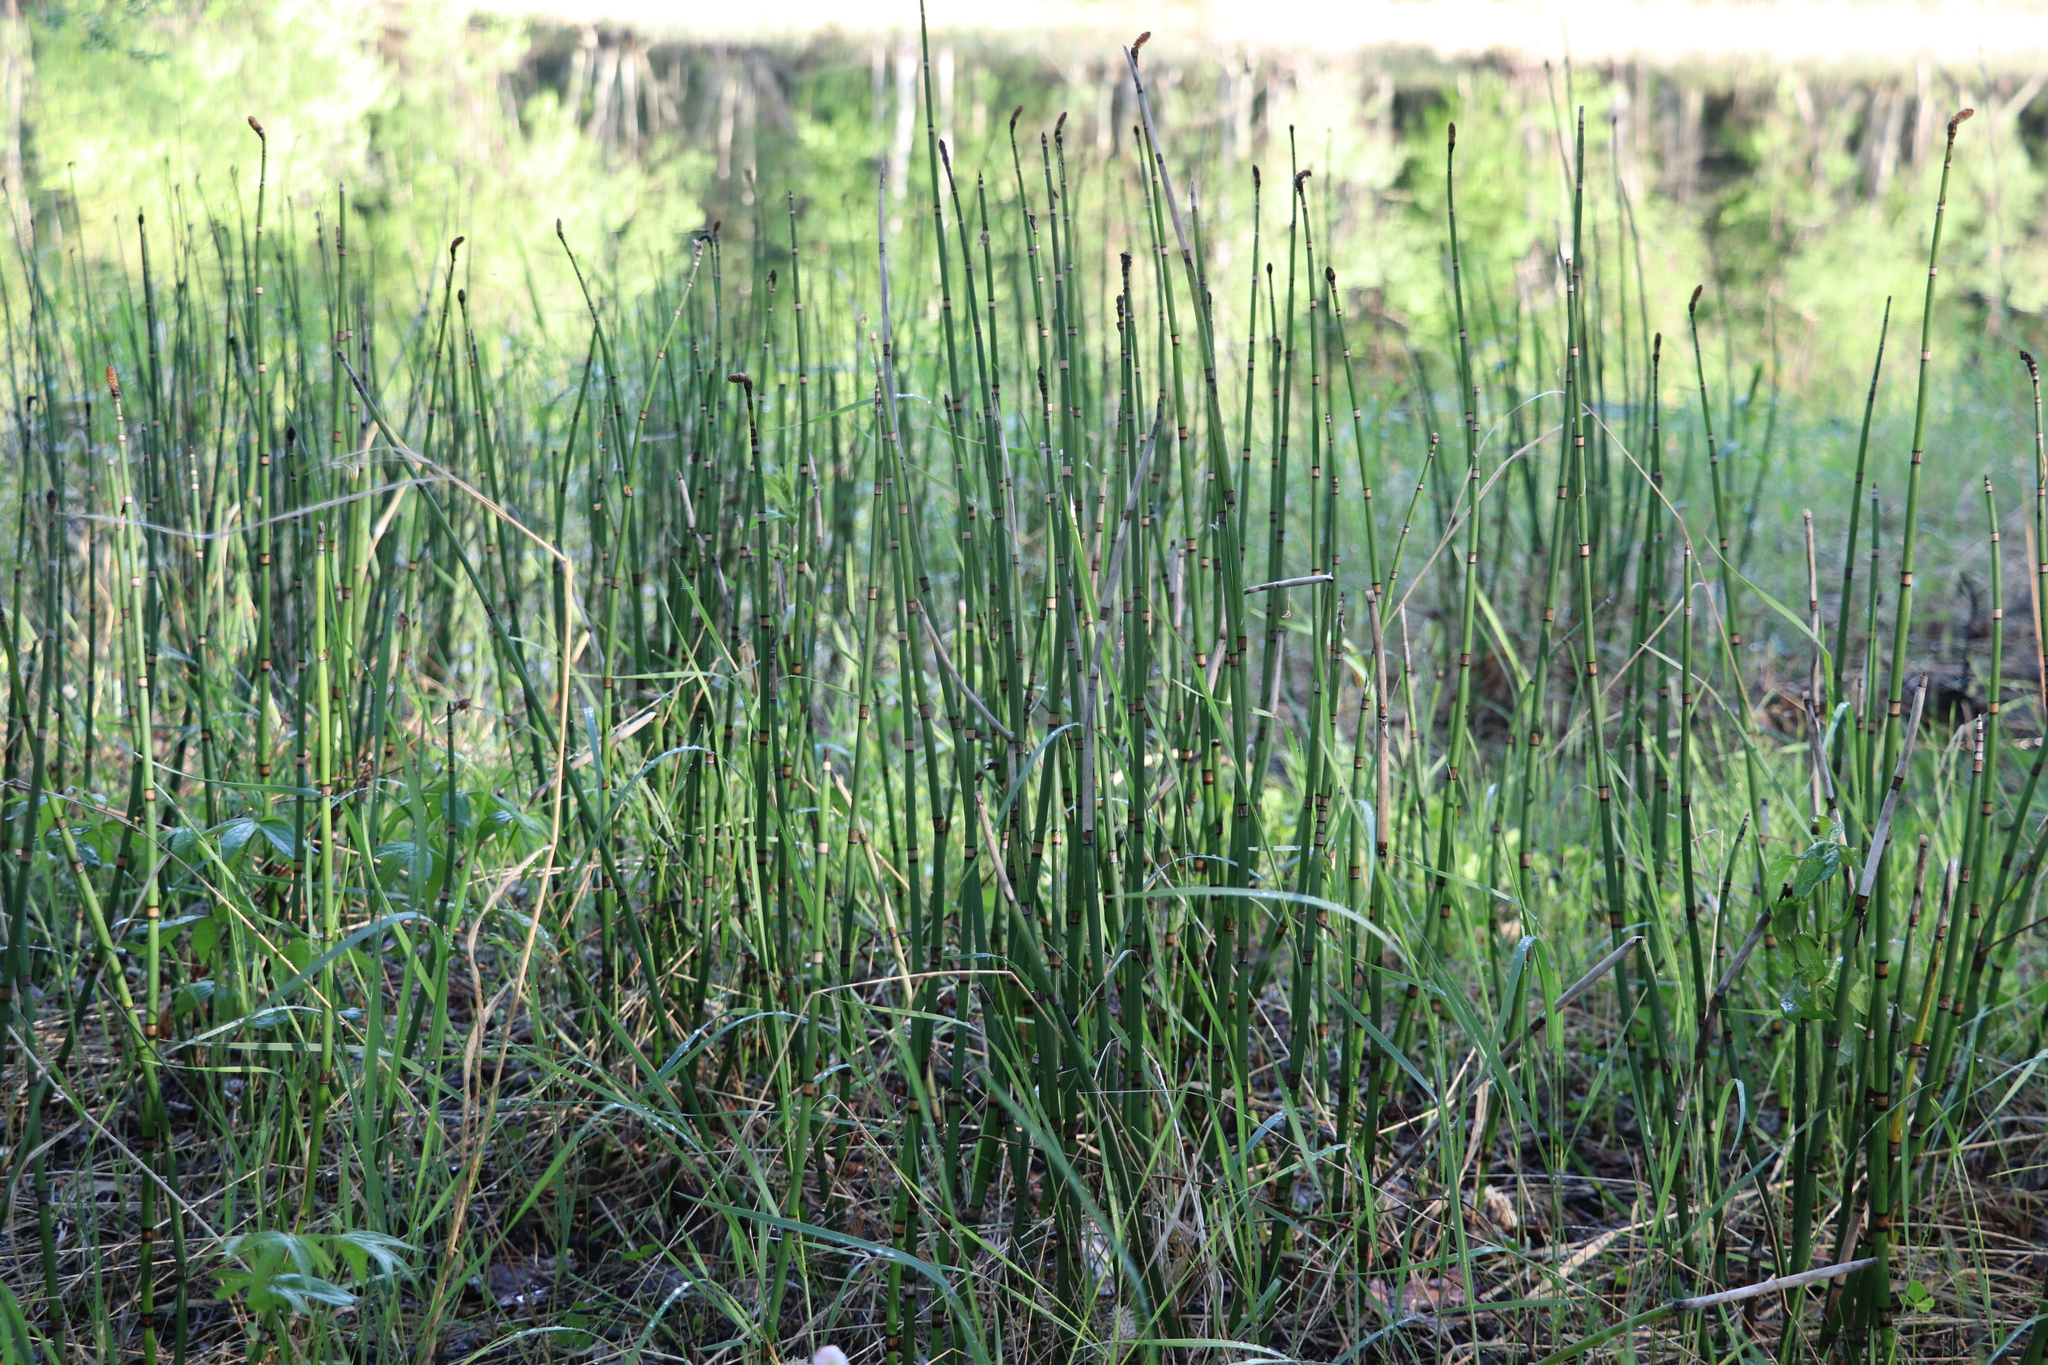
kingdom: Plantae
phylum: Tracheophyta
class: Polypodiopsida
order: Equisetales
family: Equisetaceae
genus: Equisetum
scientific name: Equisetum hyemale
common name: Rough horsetail
